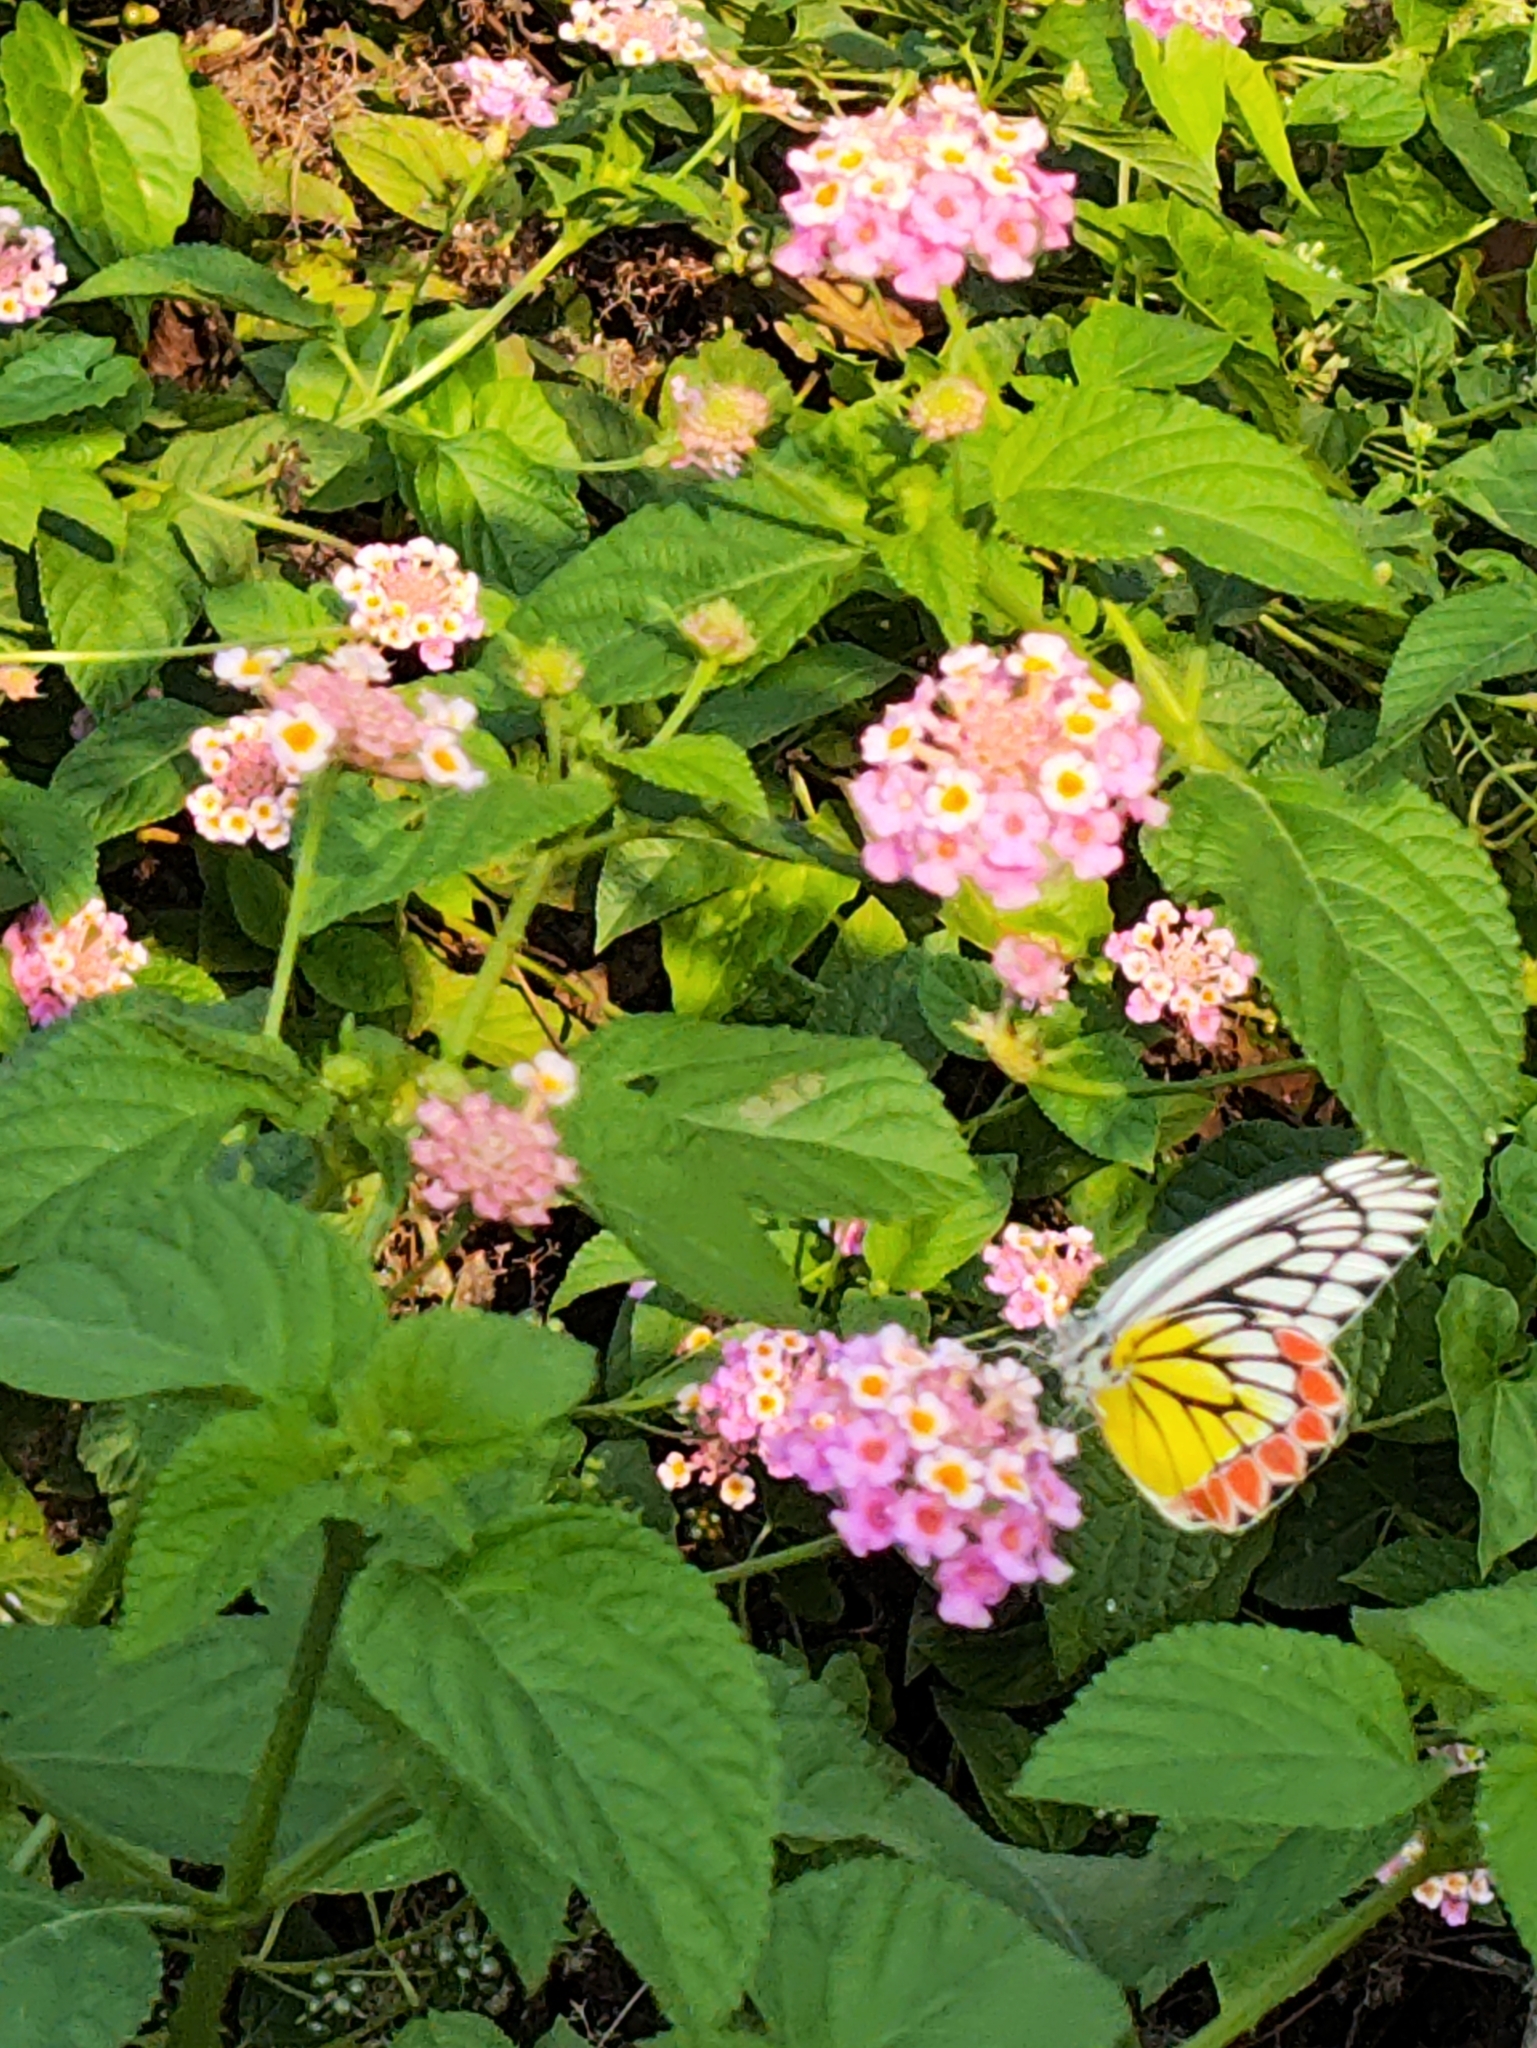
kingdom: Animalia
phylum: Arthropoda
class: Insecta
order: Lepidoptera
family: Pieridae
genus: Delias
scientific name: Delias eucharis
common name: Common jezebel
